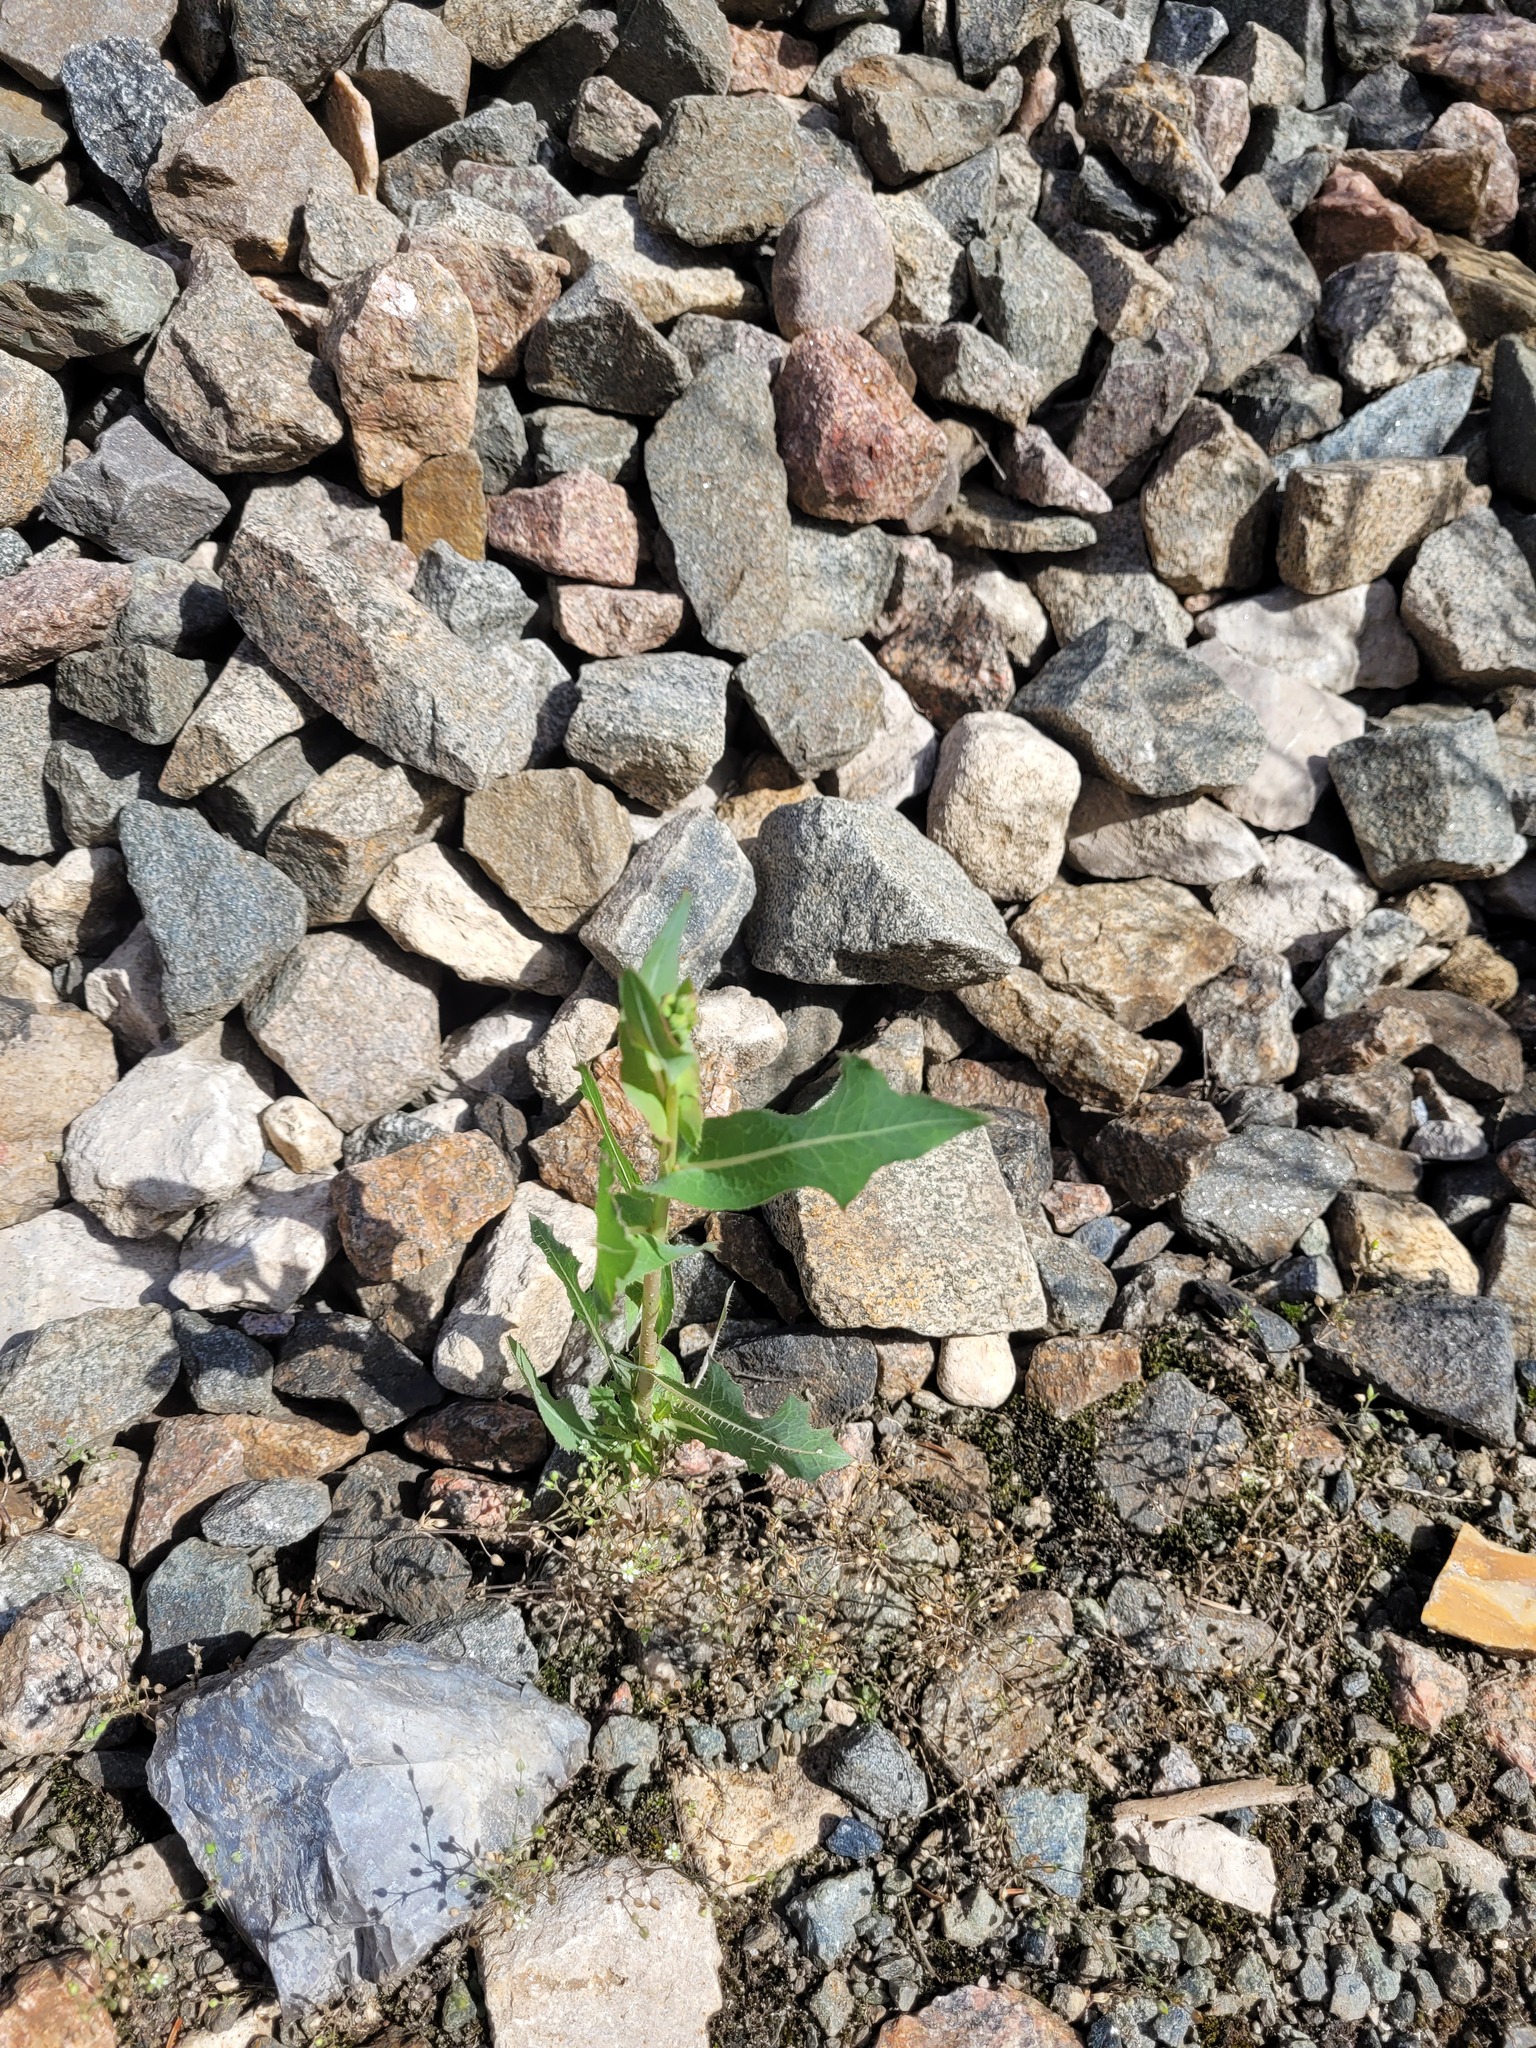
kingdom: Plantae
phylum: Tracheophyta
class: Magnoliopsida
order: Asterales
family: Asteraceae
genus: Lactuca
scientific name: Lactuca serriola
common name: Prickly lettuce
